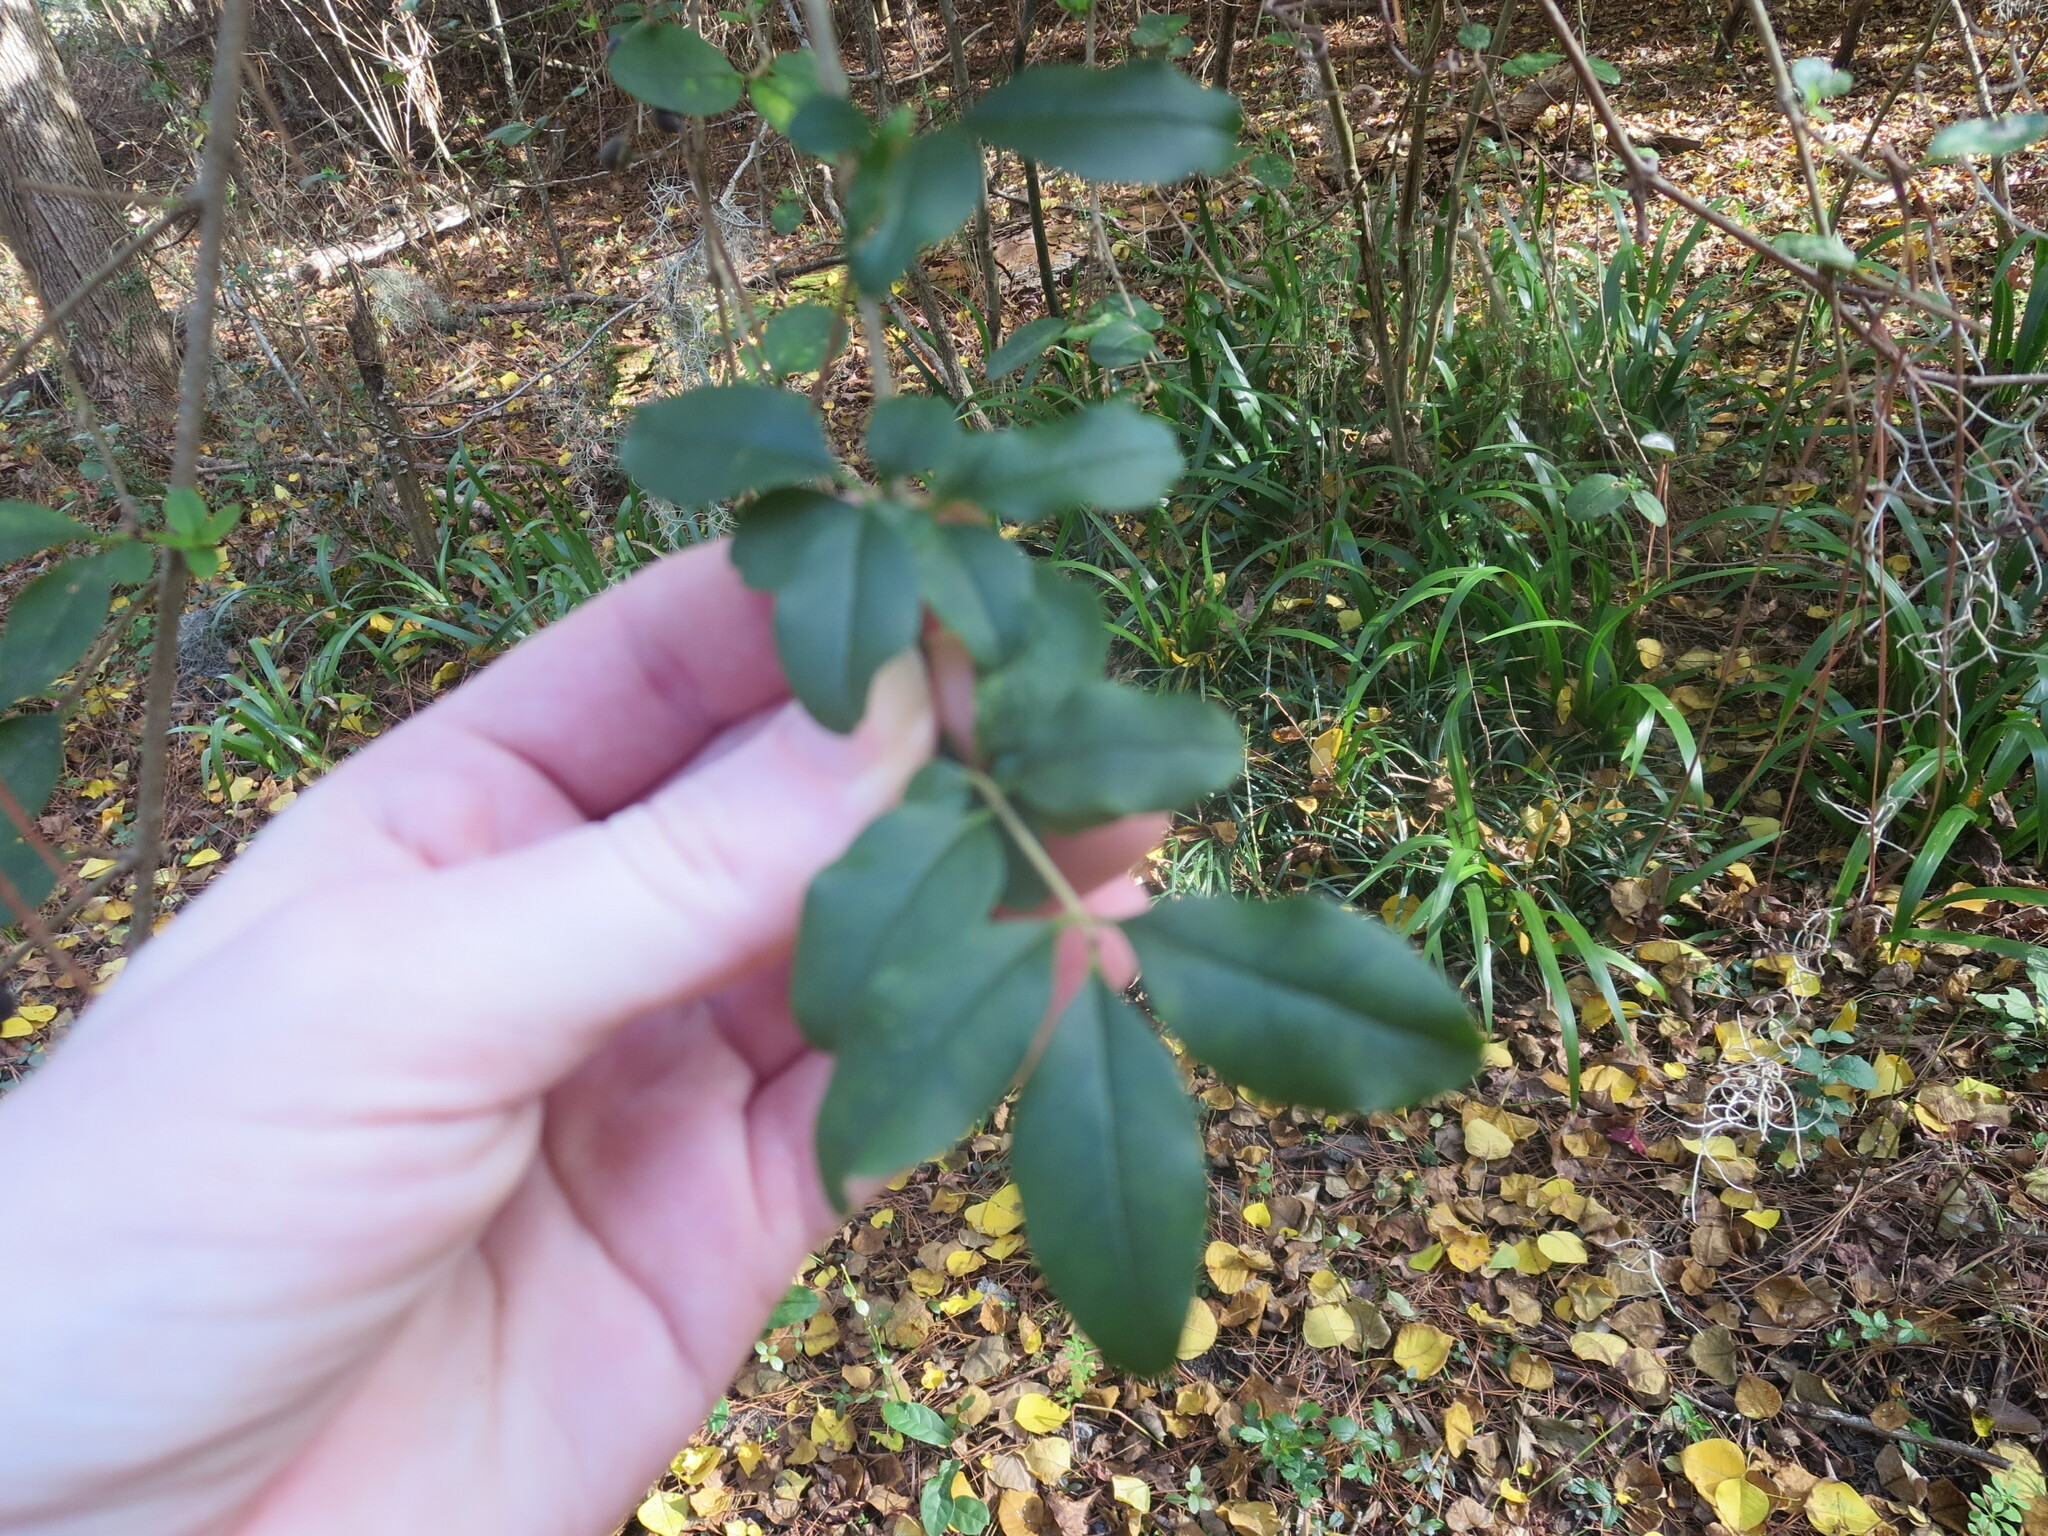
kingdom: Plantae
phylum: Tracheophyta
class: Magnoliopsida
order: Lamiales
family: Oleaceae
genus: Ligustrum
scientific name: Ligustrum sinense
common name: Chinese privet
